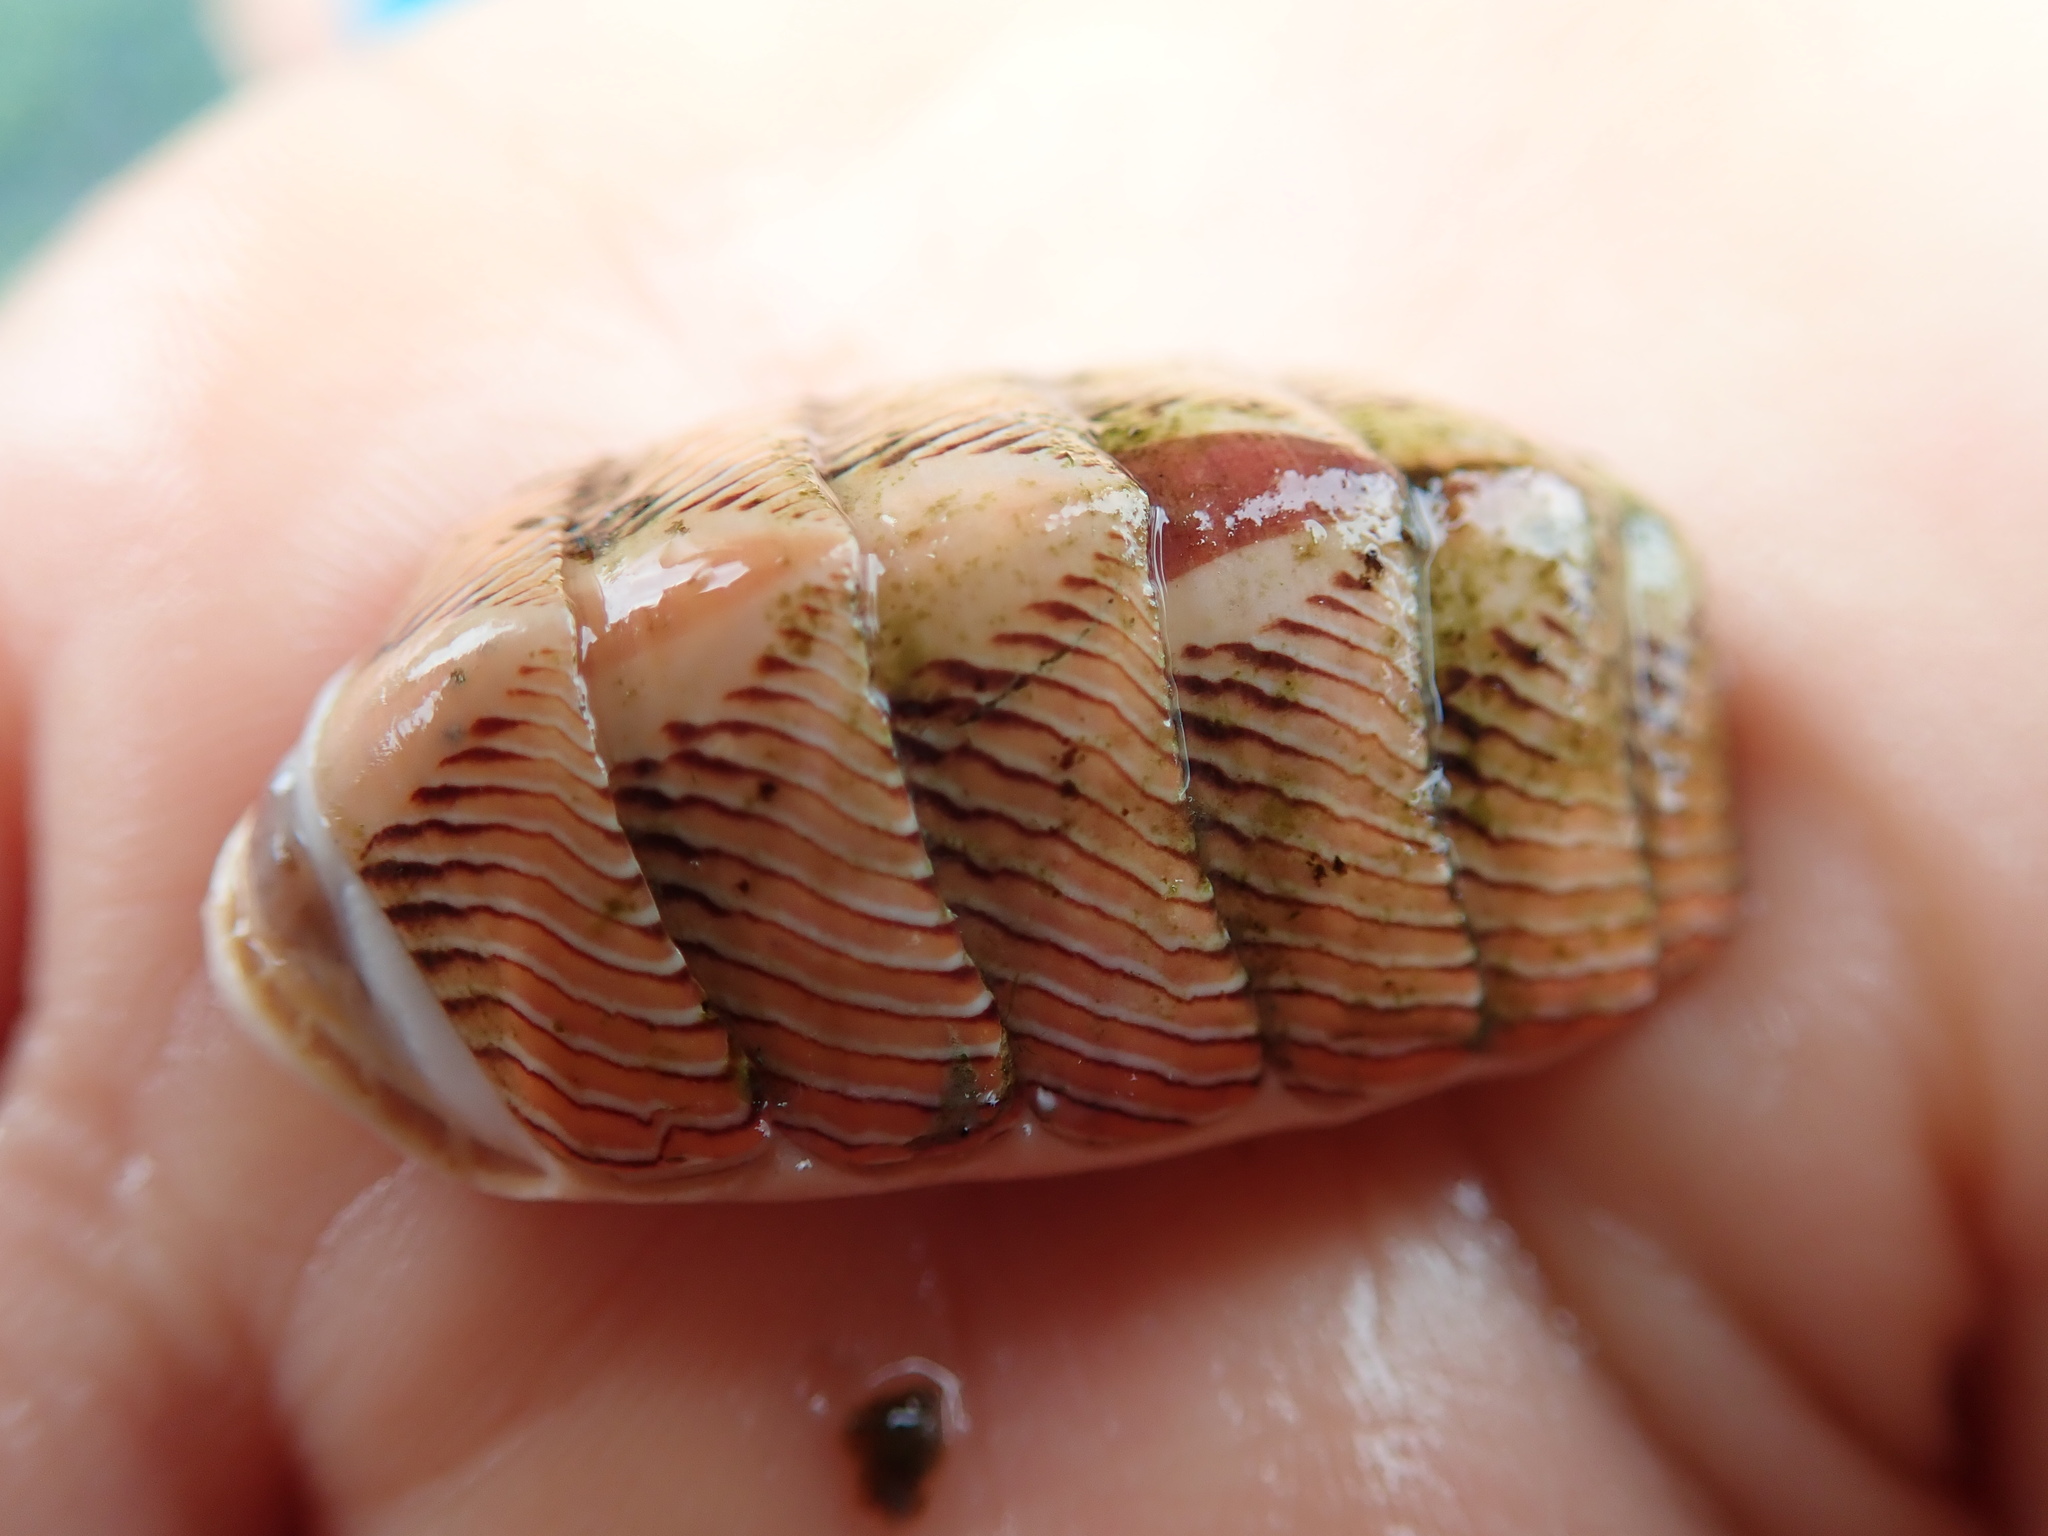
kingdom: Animalia
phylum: Mollusca
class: Polyplacophora
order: Chitonida
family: Tonicellidae
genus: Tonicella
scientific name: Tonicella lineata
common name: Lined chiton
